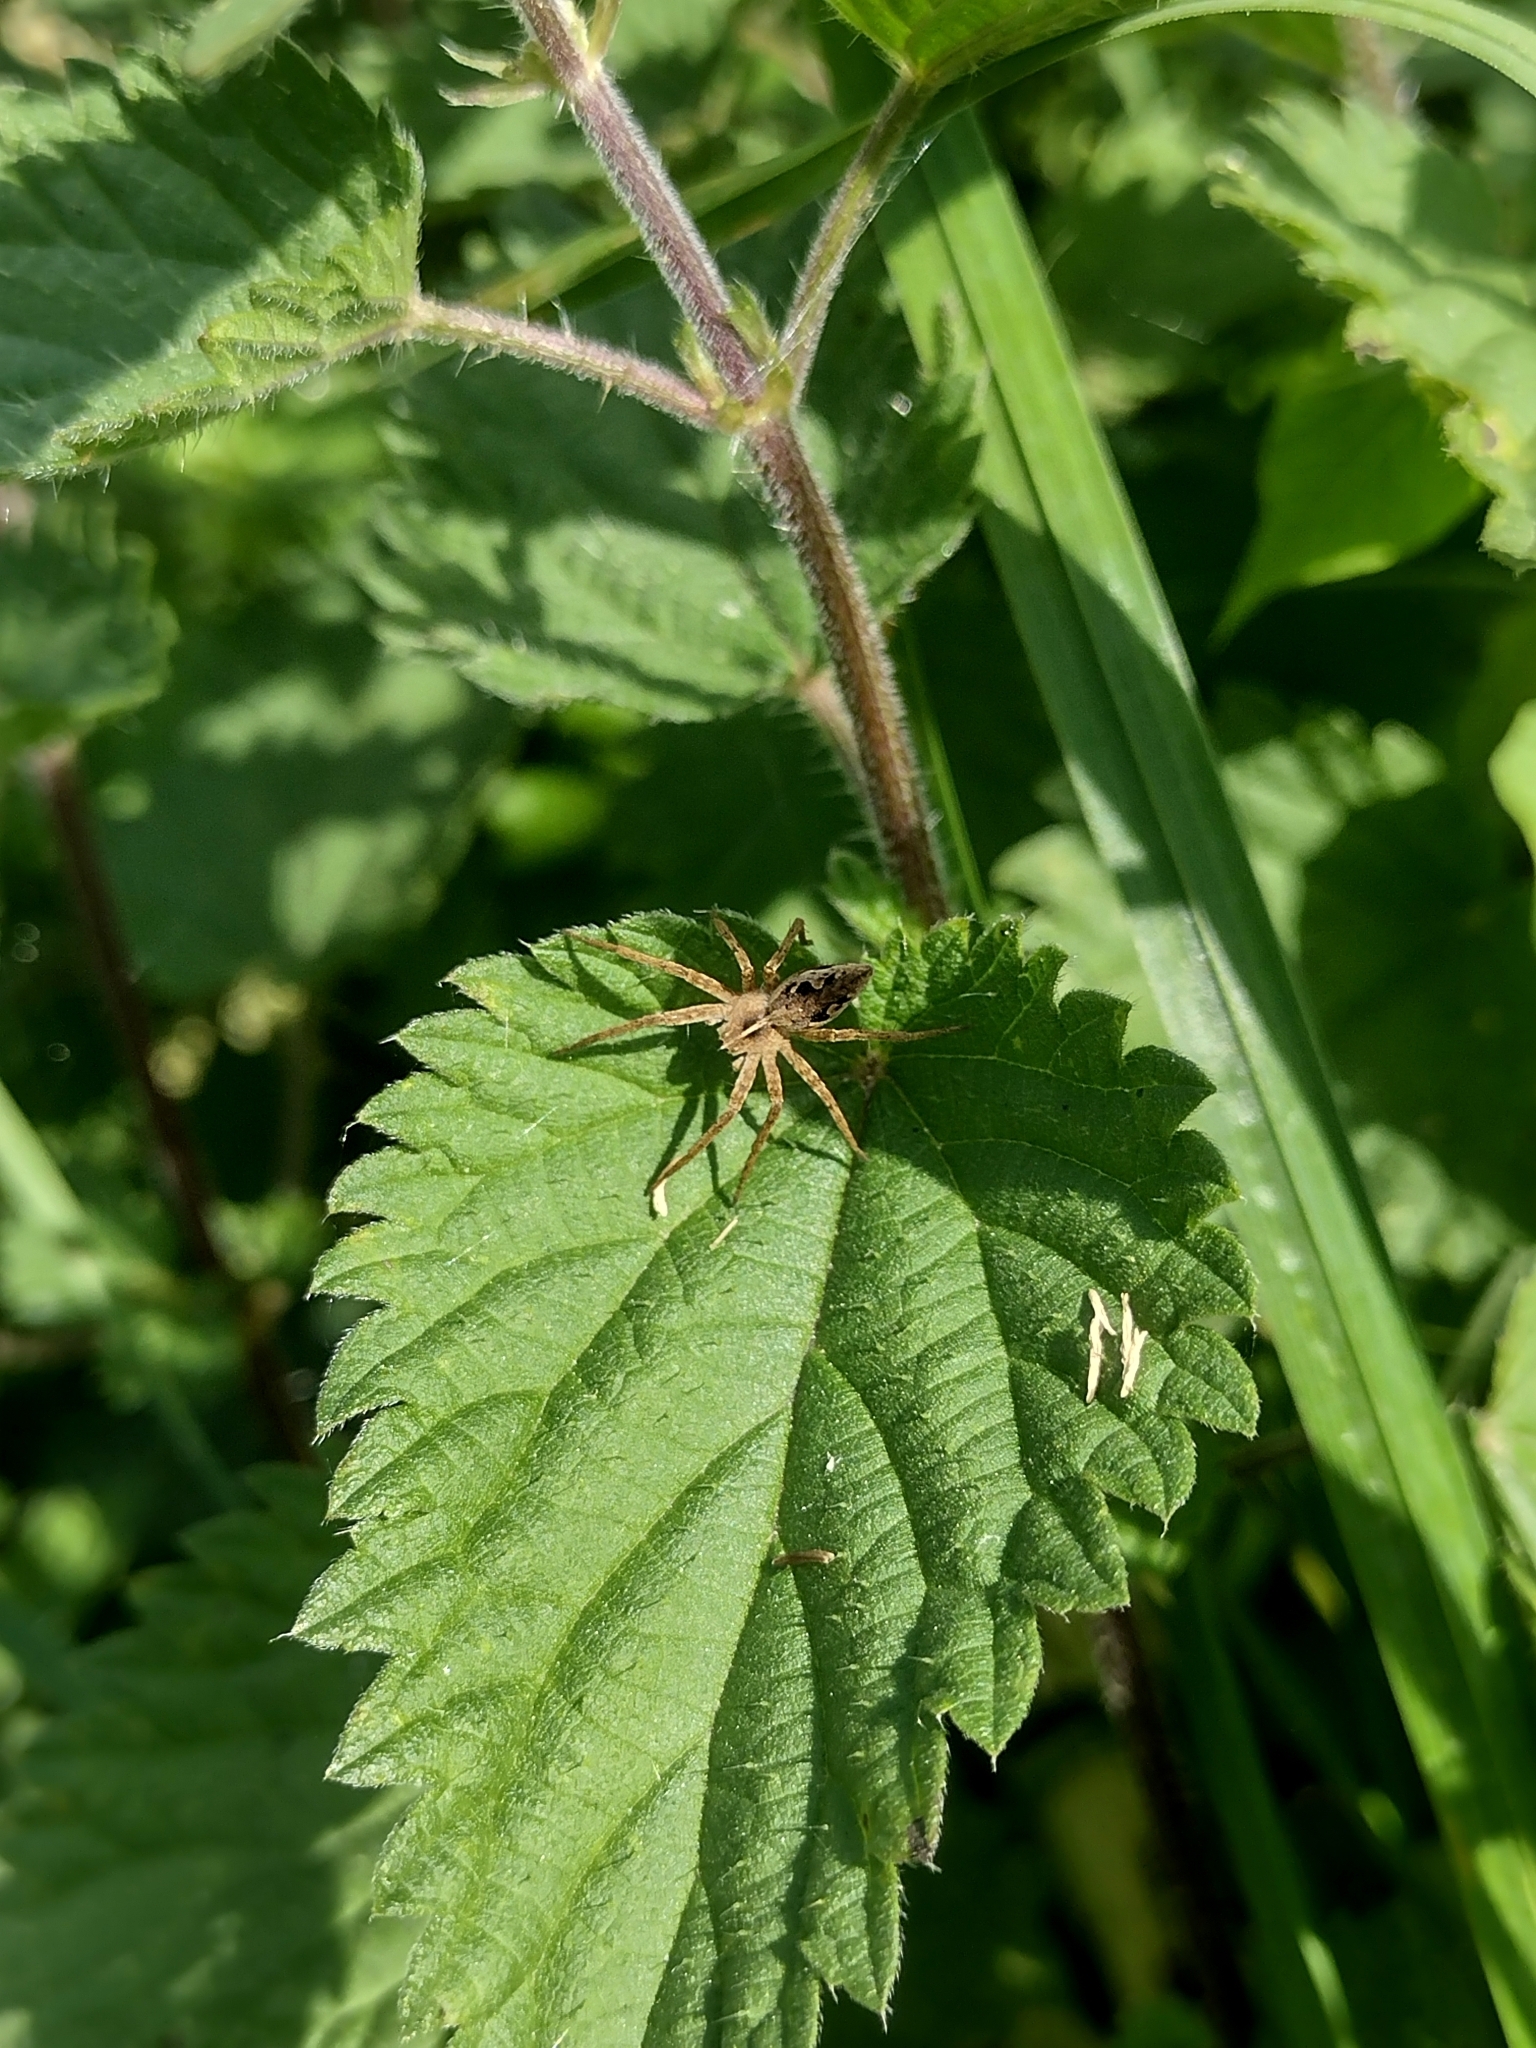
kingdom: Animalia
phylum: Arthropoda
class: Arachnida
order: Araneae
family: Pisauridae
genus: Pisaura
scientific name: Pisaura mirabilis
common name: Tent spider
